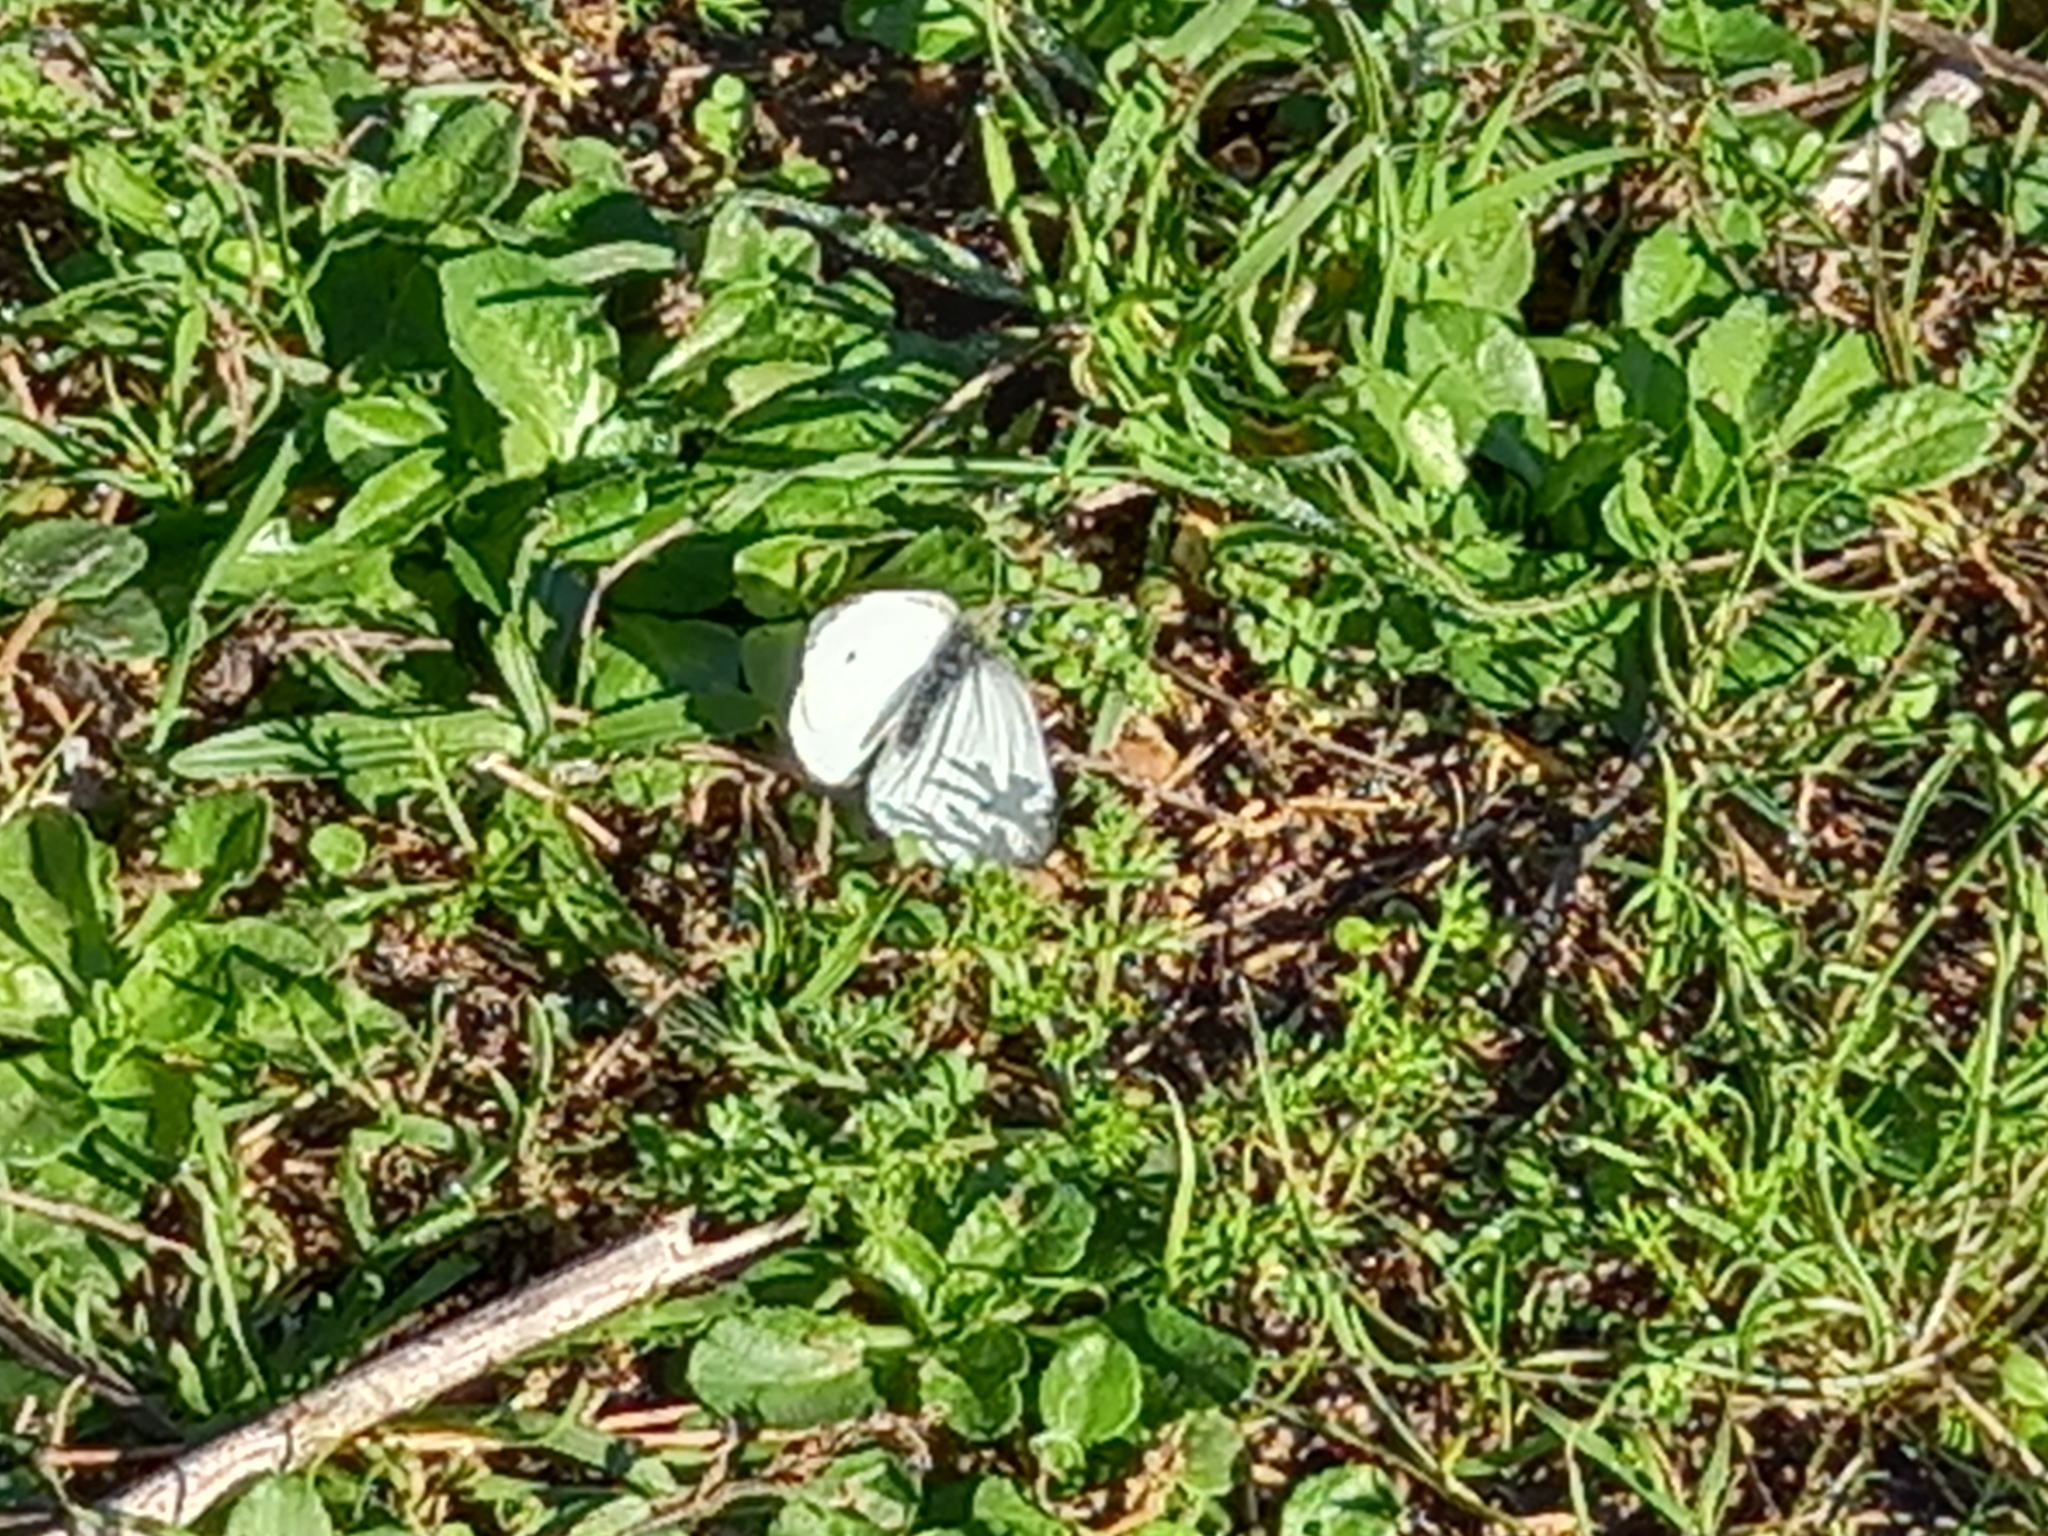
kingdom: Animalia
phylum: Arthropoda
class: Insecta
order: Lepidoptera
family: Pieridae
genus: Pieris
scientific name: Pieris rapae
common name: Small white
